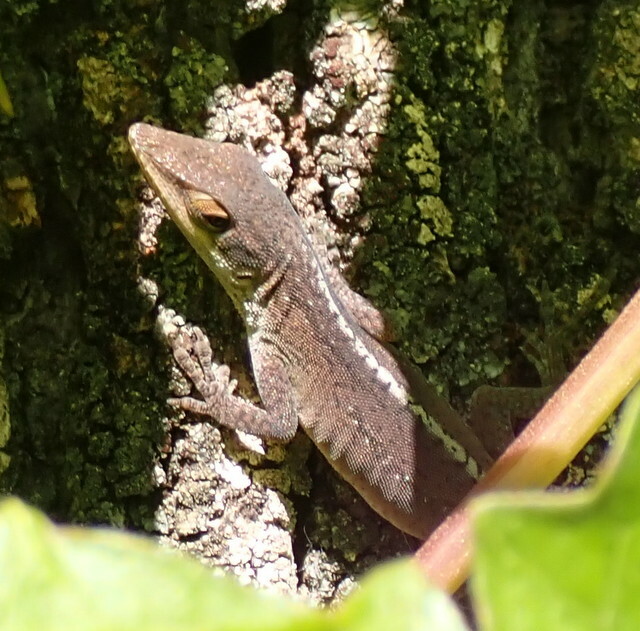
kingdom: Animalia
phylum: Chordata
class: Squamata
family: Dactyloidae
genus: Anolis
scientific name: Anolis carolinensis
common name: Green anole
